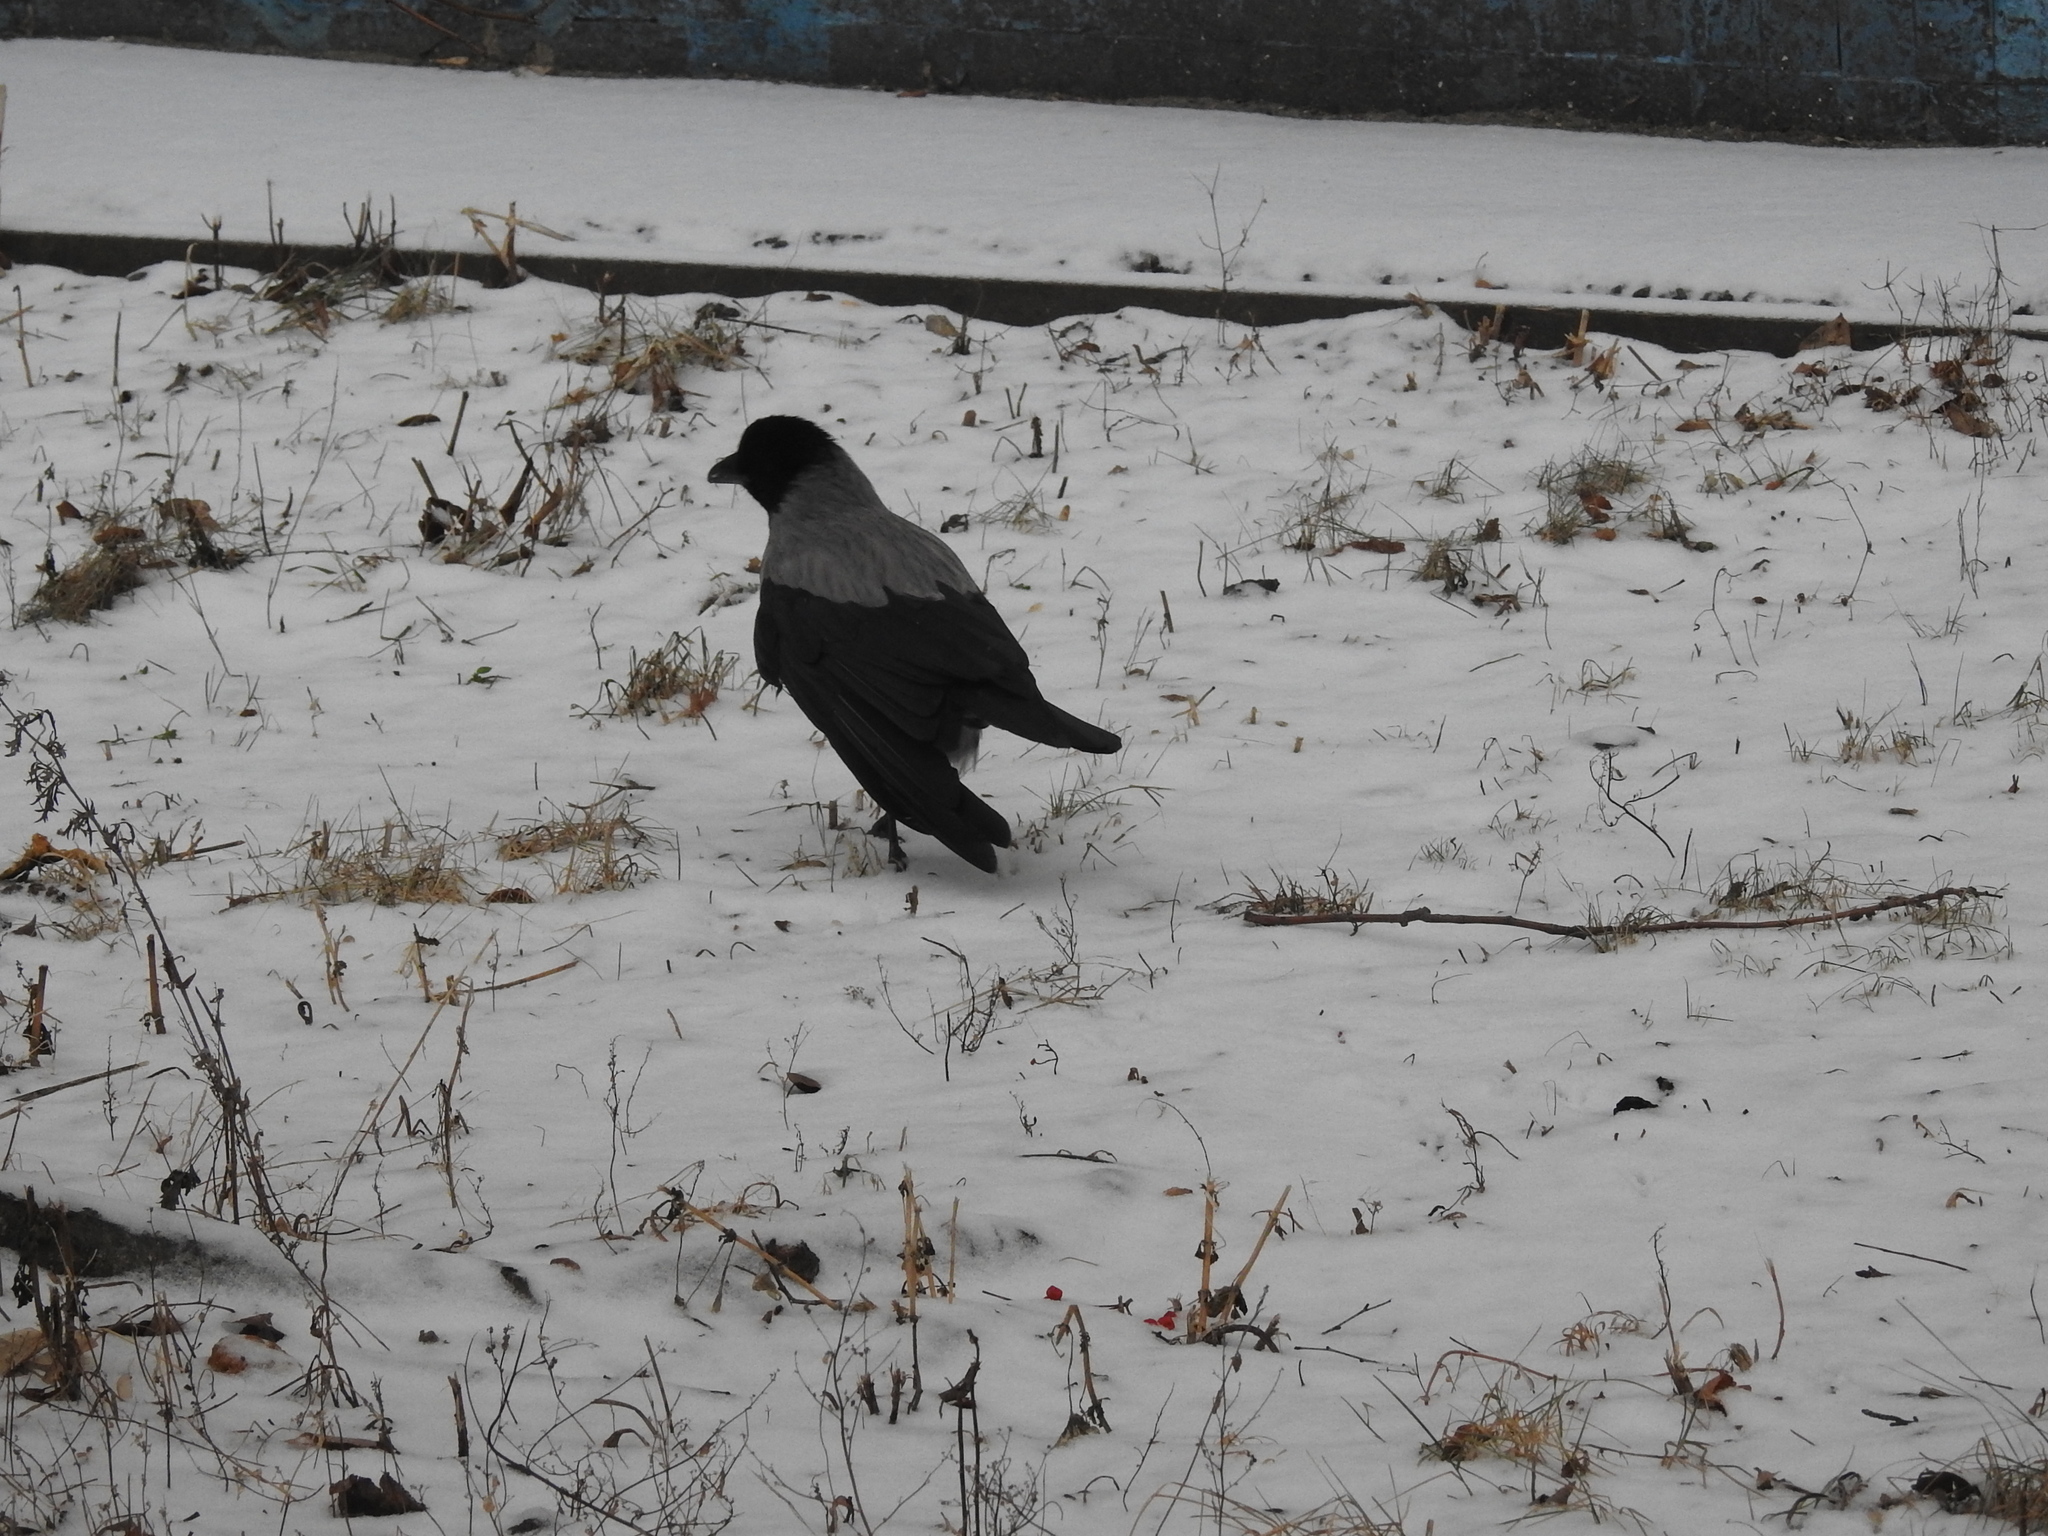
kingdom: Animalia
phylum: Chordata
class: Aves
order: Passeriformes
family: Corvidae
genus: Corvus
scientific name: Corvus cornix
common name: Hooded crow
